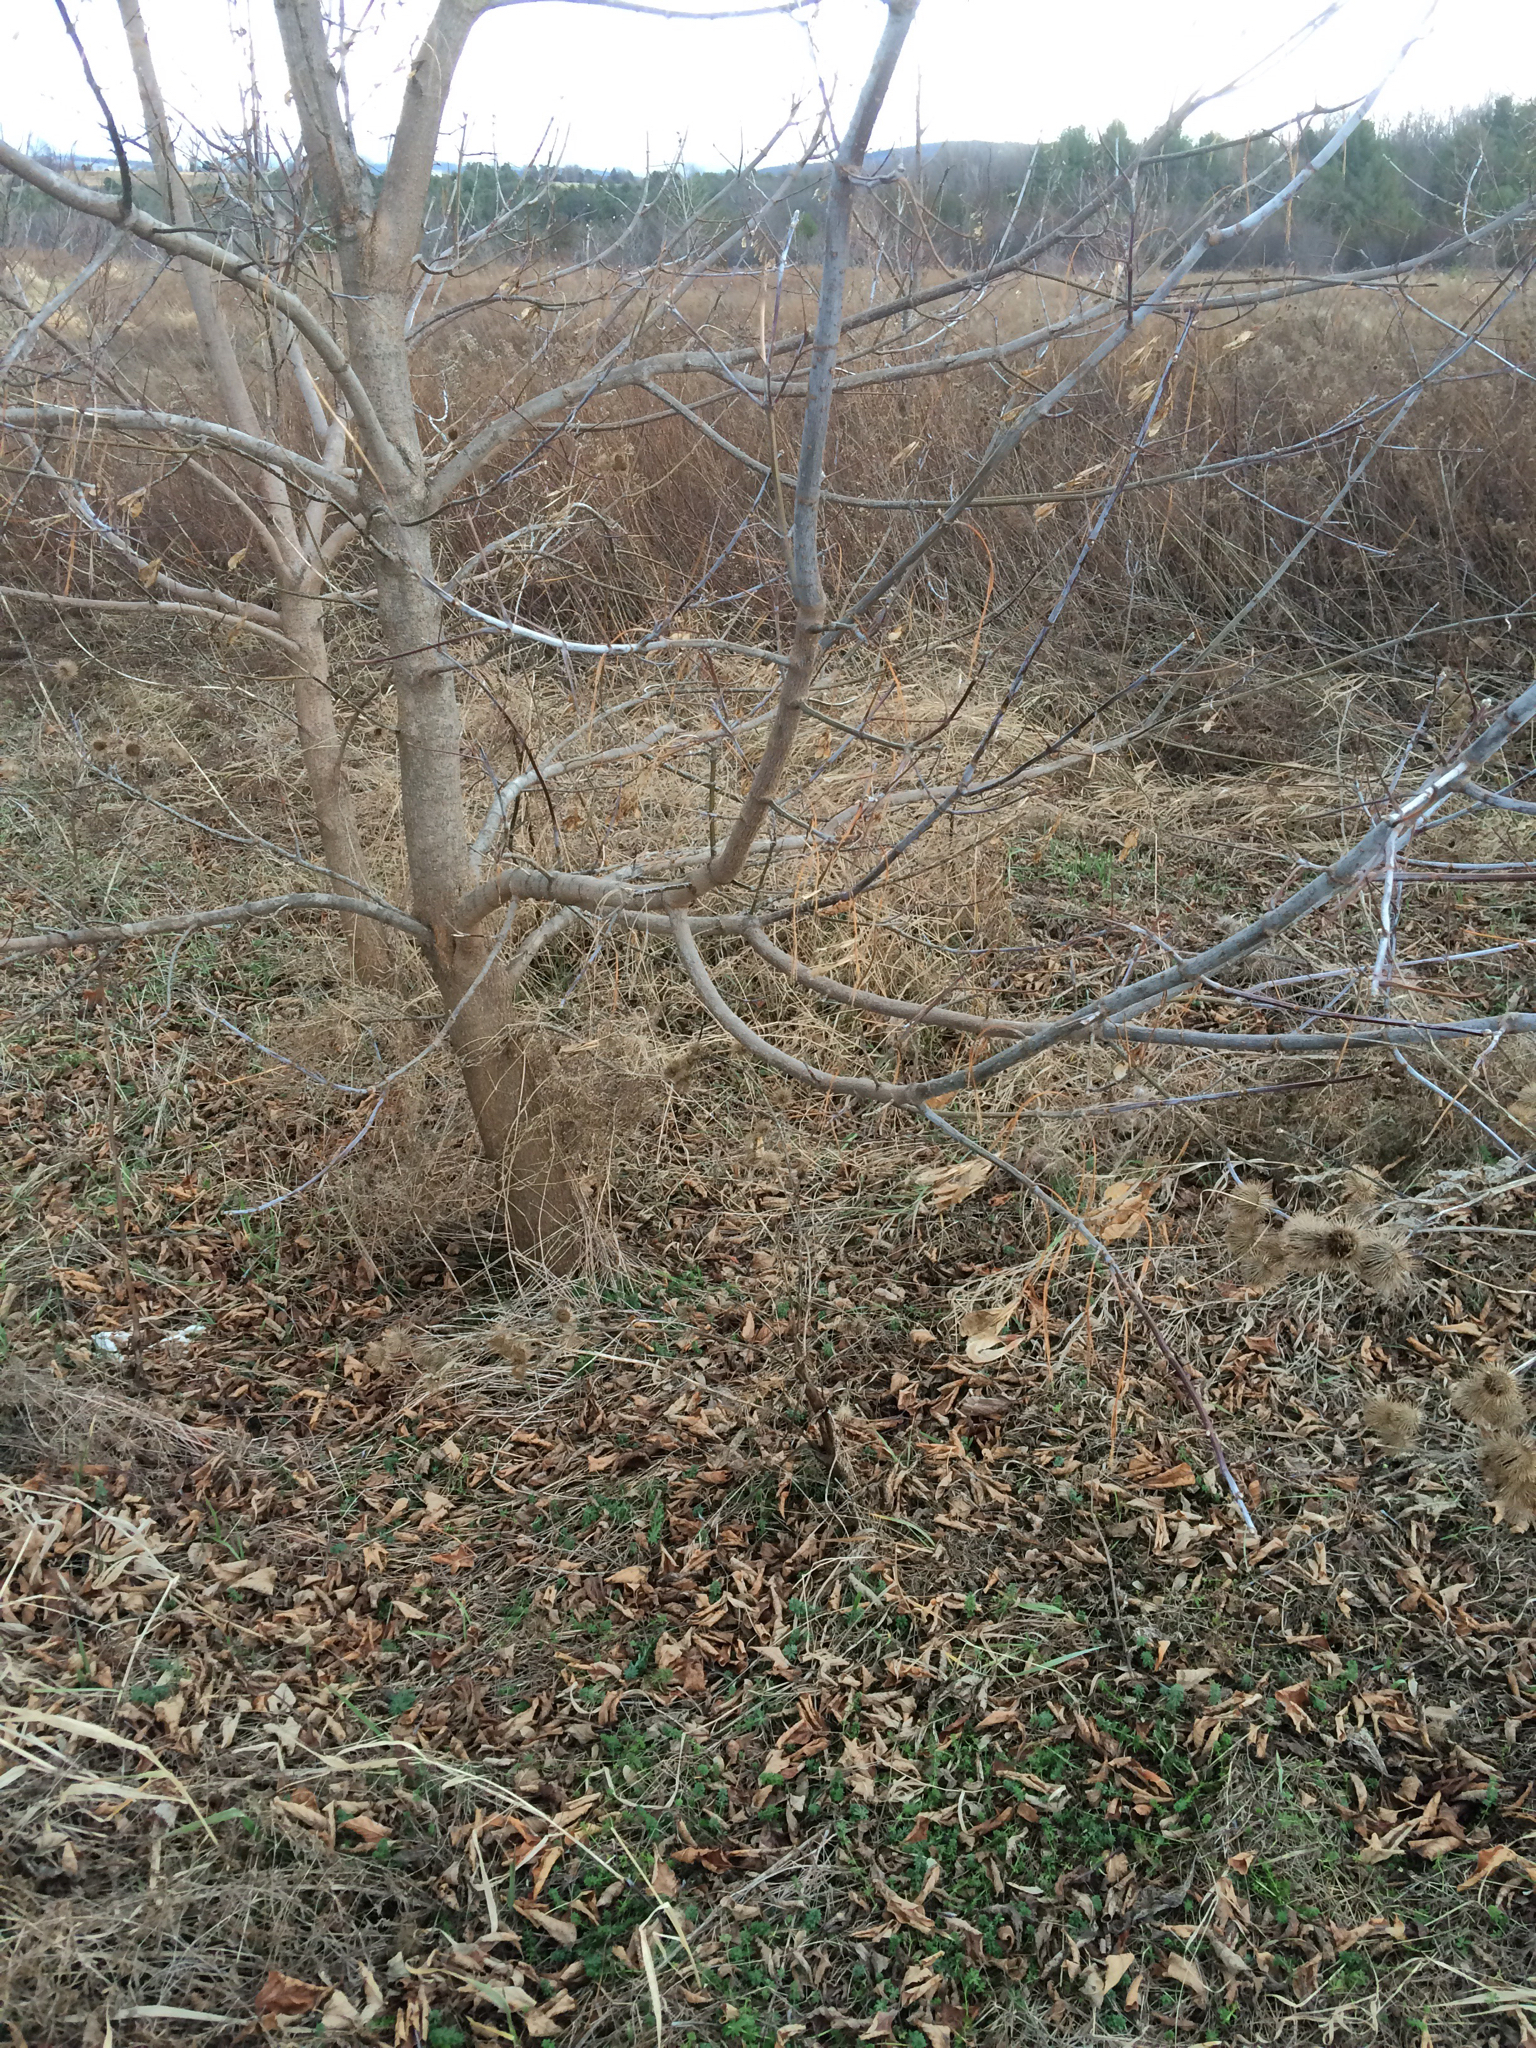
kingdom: Plantae
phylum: Tracheophyta
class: Magnoliopsida
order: Sapindales
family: Sapindaceae
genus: Acer
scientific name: Acer negundo
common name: Ashleaf maple
